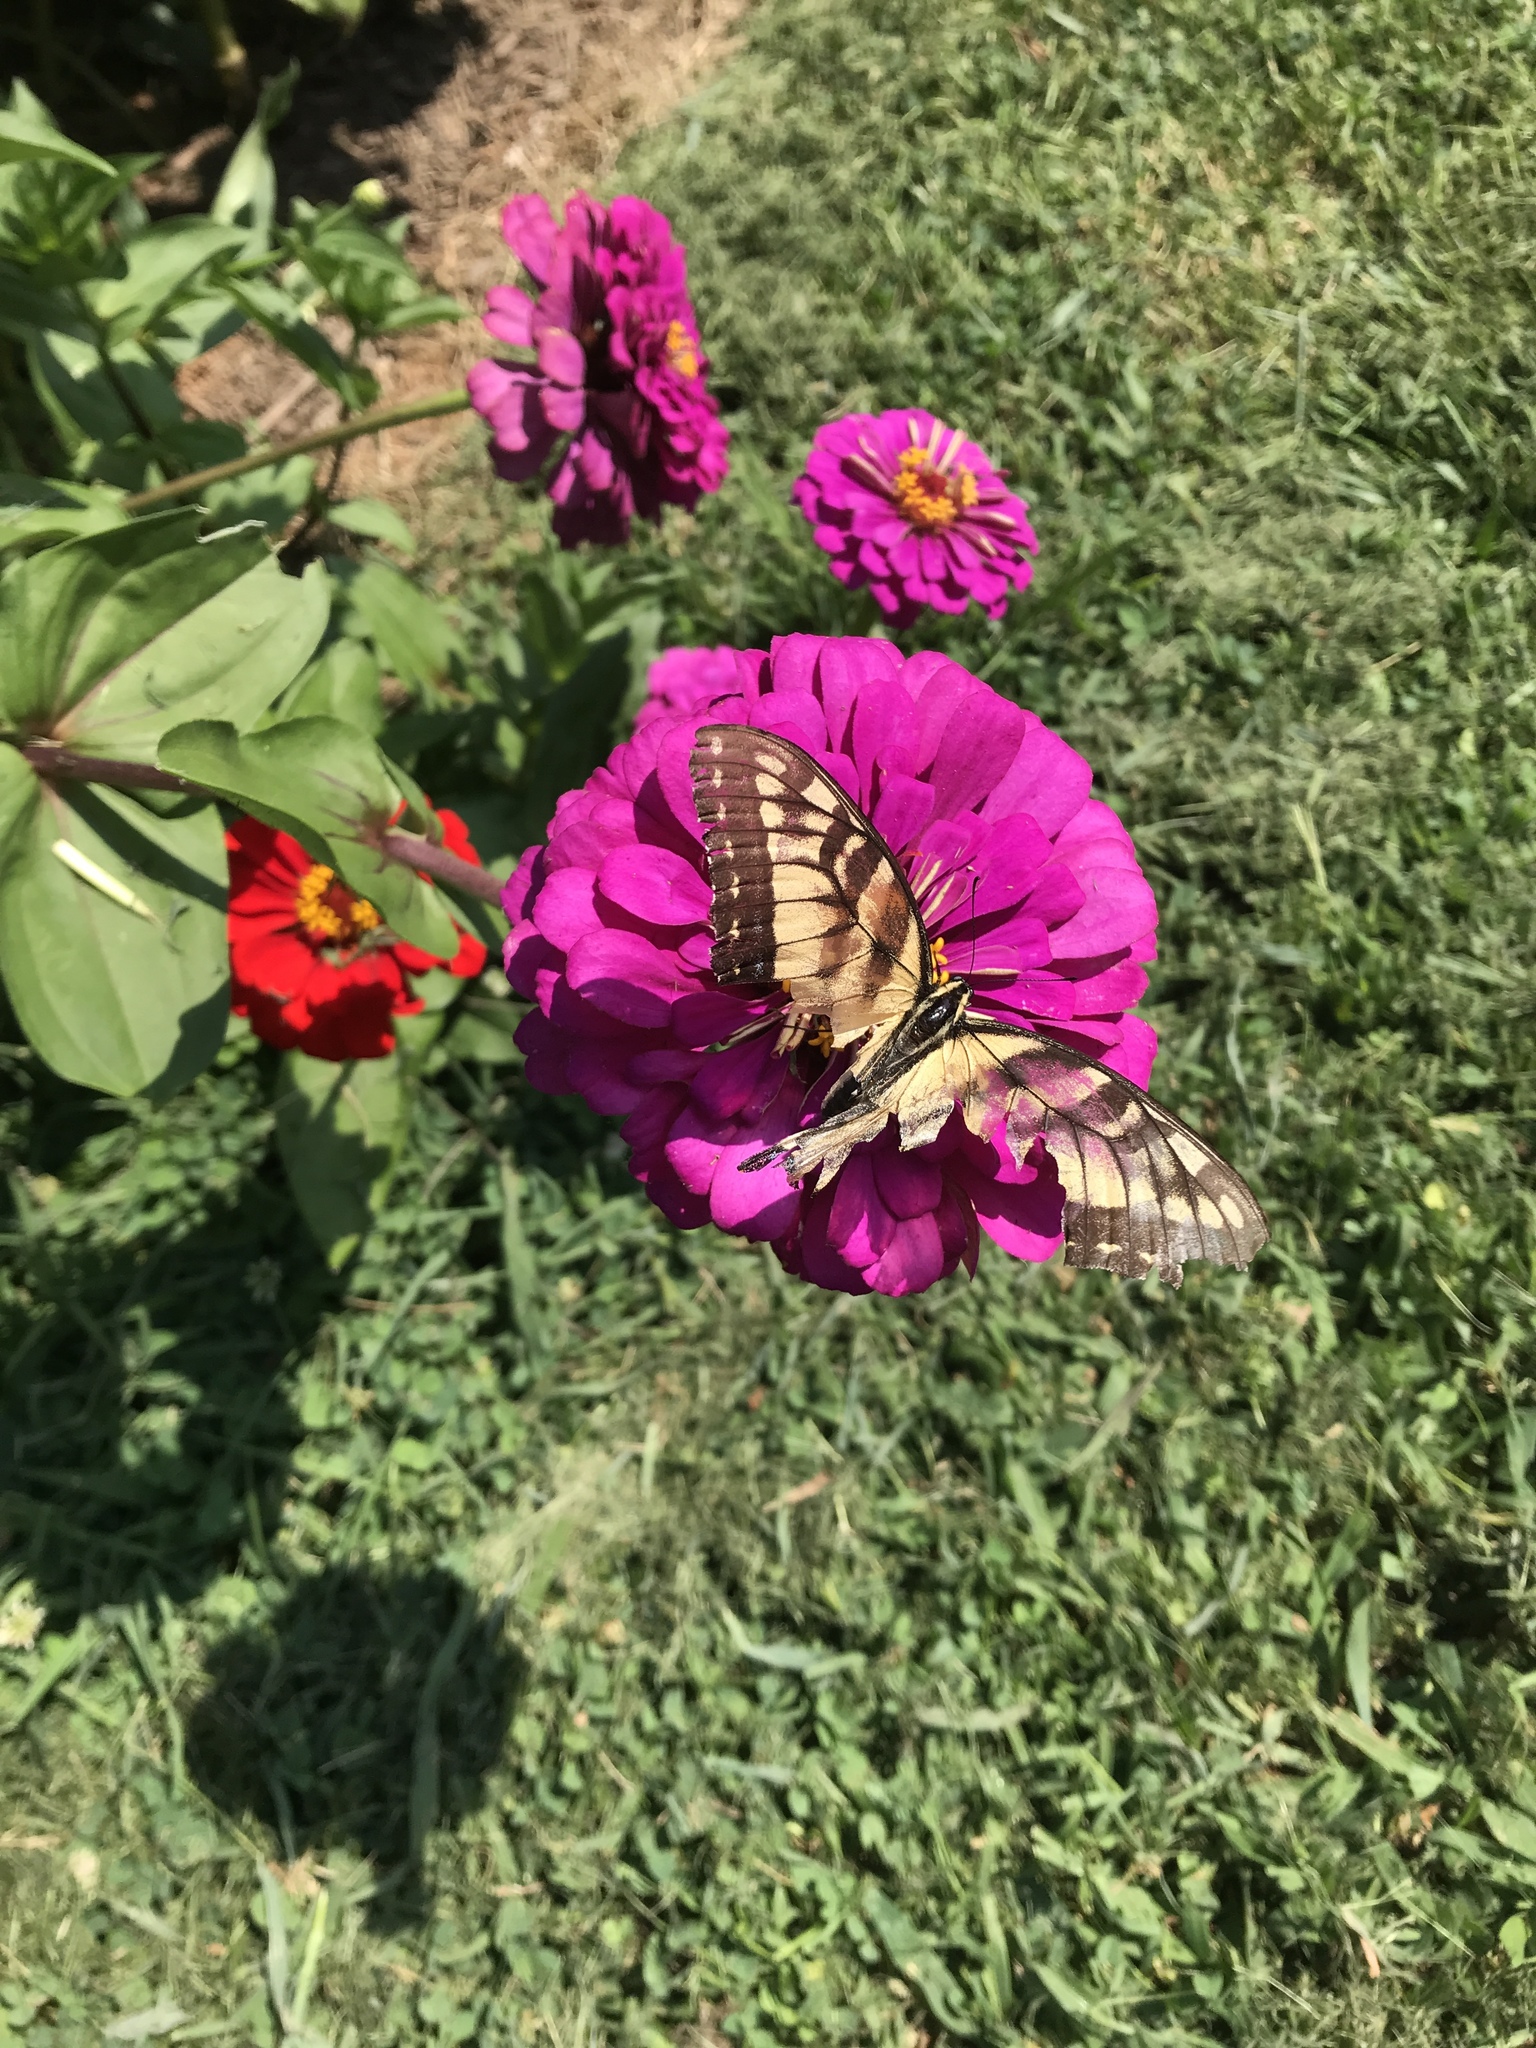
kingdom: Animalia
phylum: Arthropoda
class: Insecta
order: Lepidoptera
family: Papilionidae
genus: Papilio
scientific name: Papilio glaucus
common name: Tiger swallowtail
